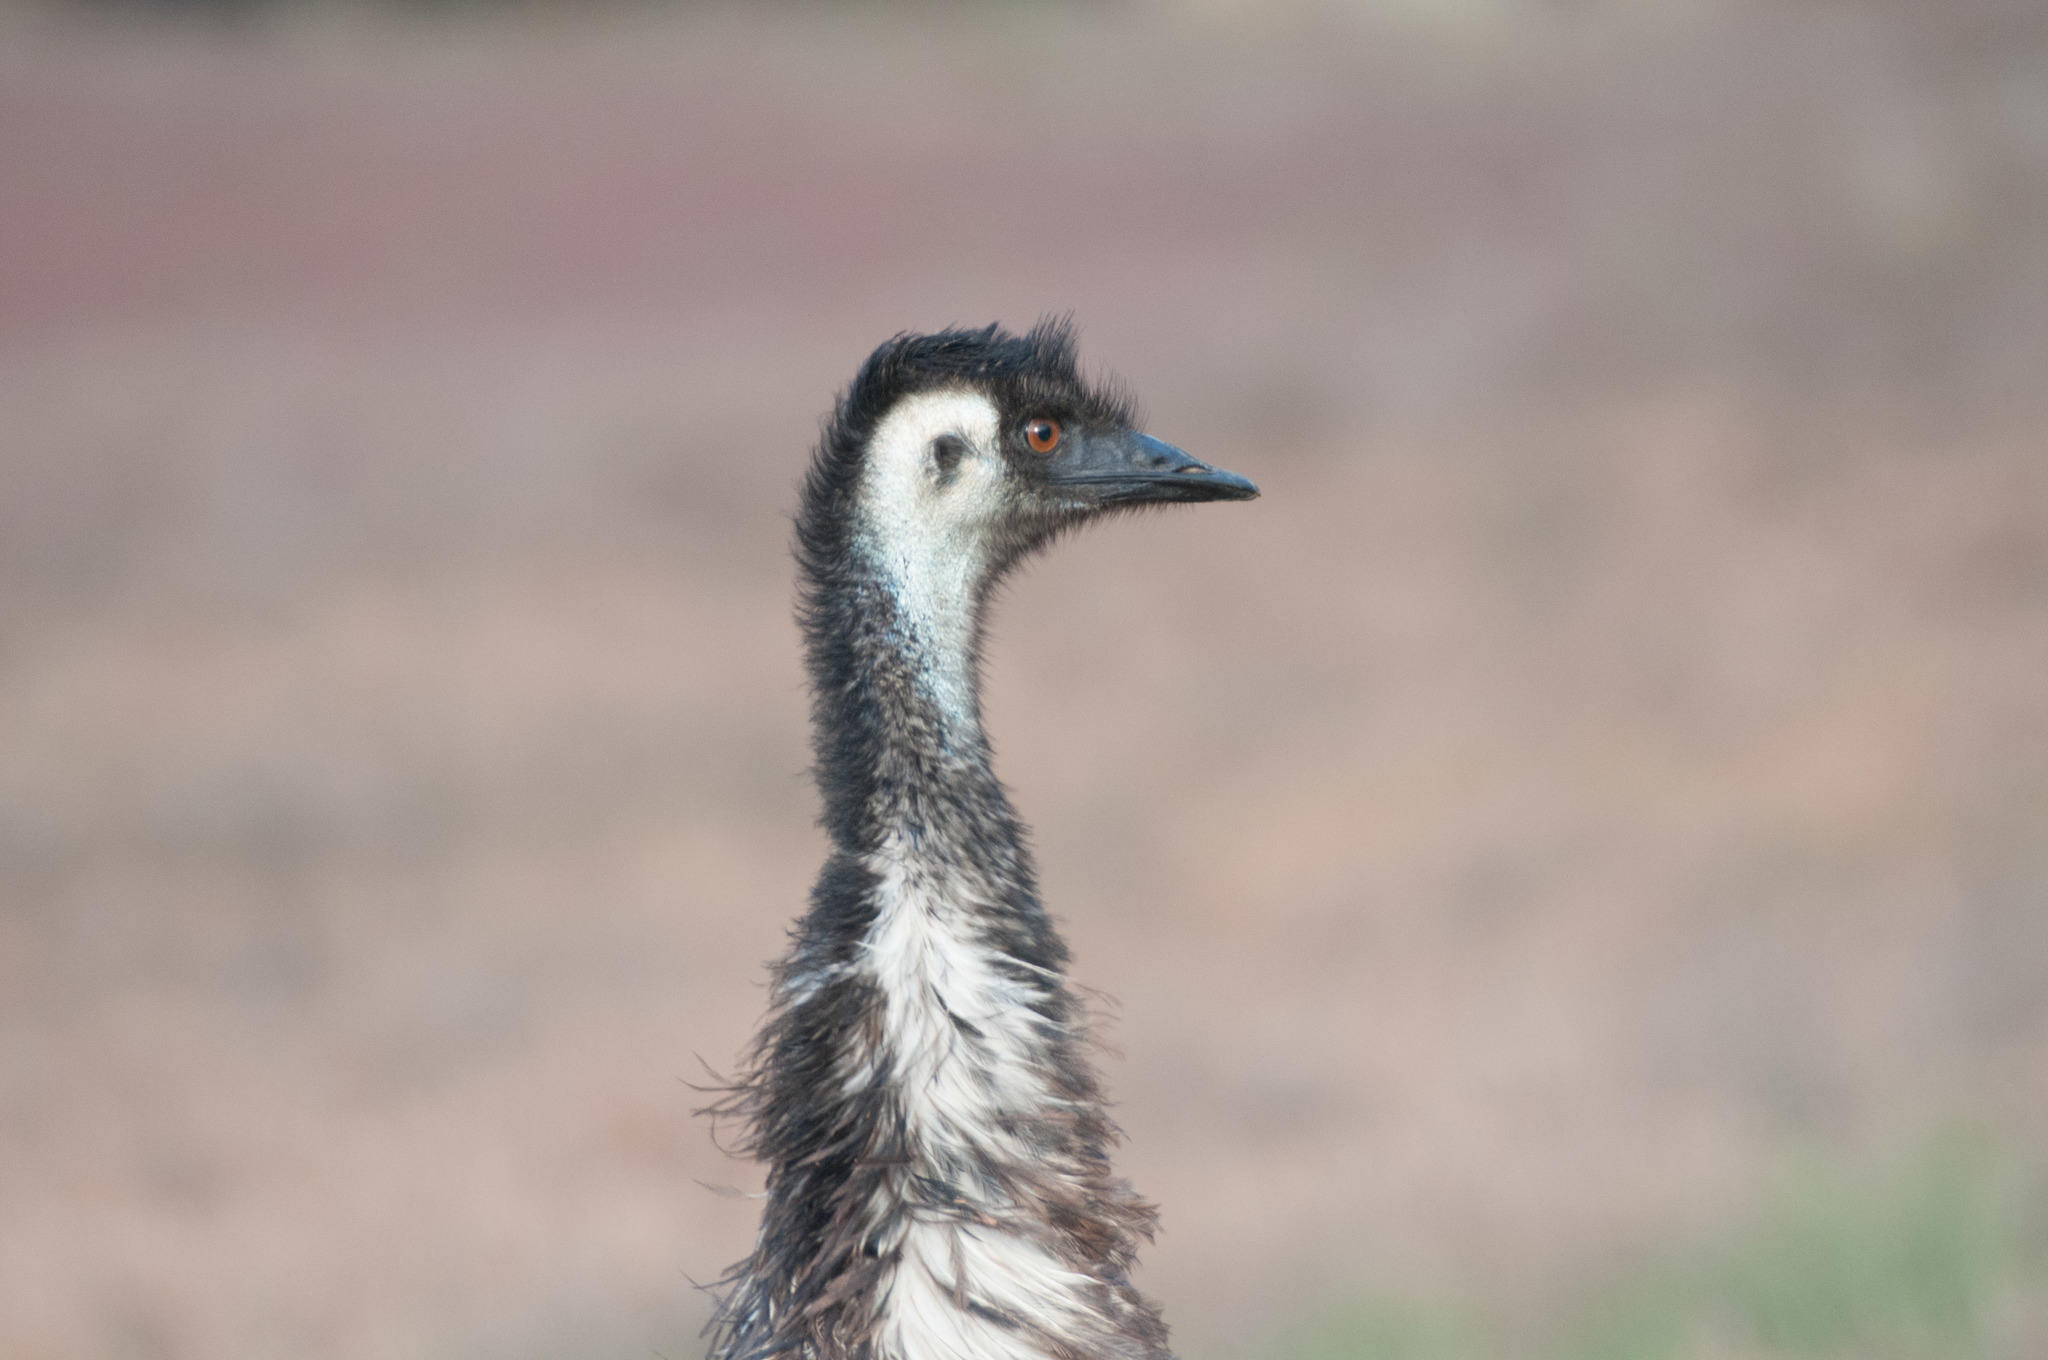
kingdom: Animalia
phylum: Chordata
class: Aves
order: Casuariiformes
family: Dromaiidae
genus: Dromaius
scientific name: Dromaius novaehollandiae
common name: Emu
